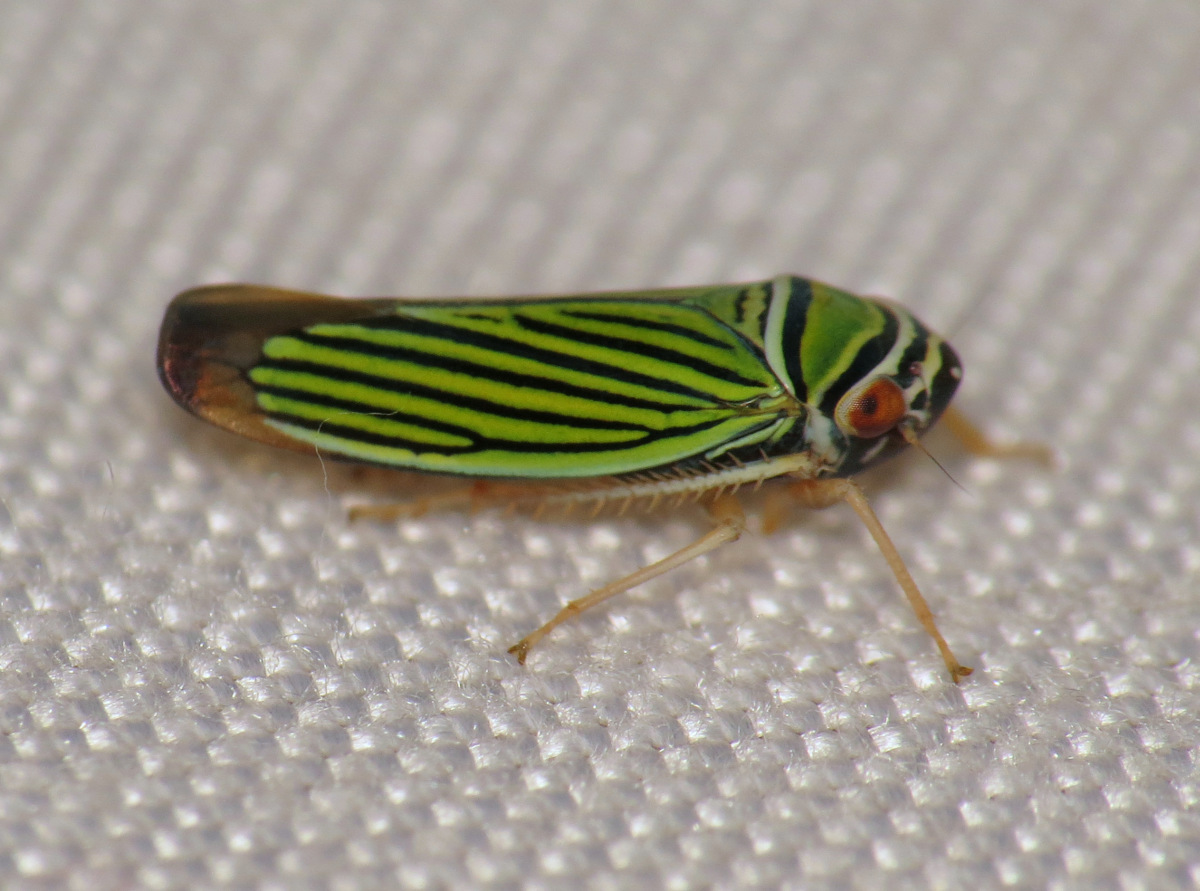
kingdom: Animalia
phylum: Arthropoda
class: Insecta
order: Hemiptera
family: Cicadellidae
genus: Tylozygus
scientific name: Tylozygus bifidus
